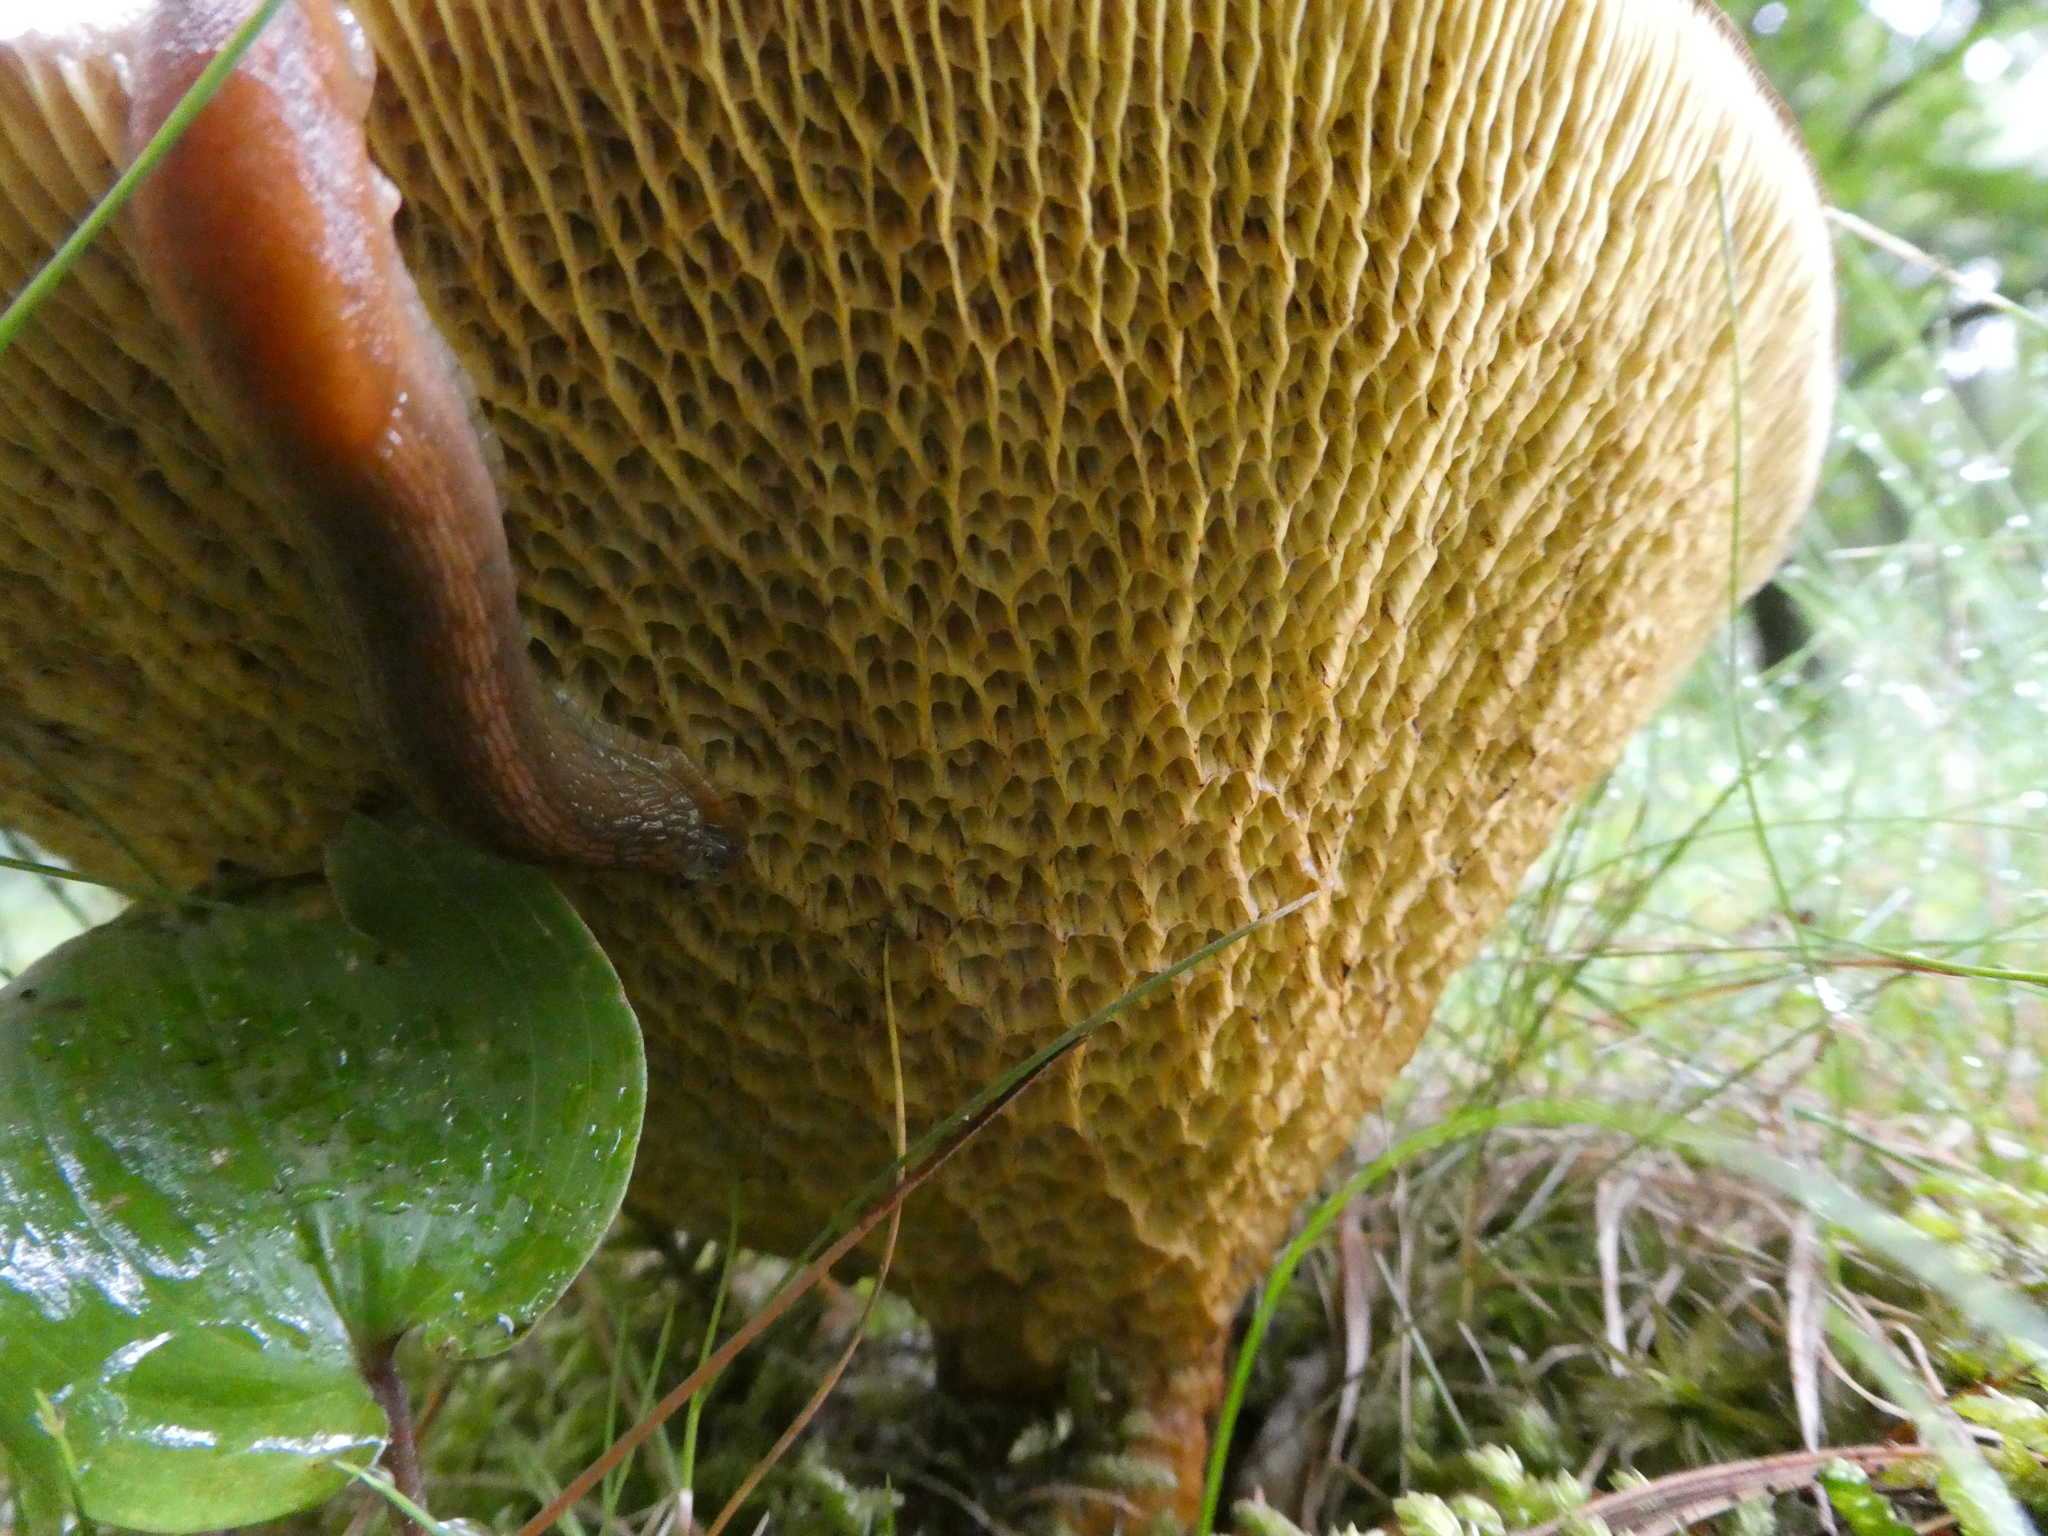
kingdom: Fungi
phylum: Basidiomycota
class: Agaricomycetes
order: Boletales
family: Boletinellaceae
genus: Boletinellus
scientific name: Boletinellus merulioides
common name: Ash tree bolete
